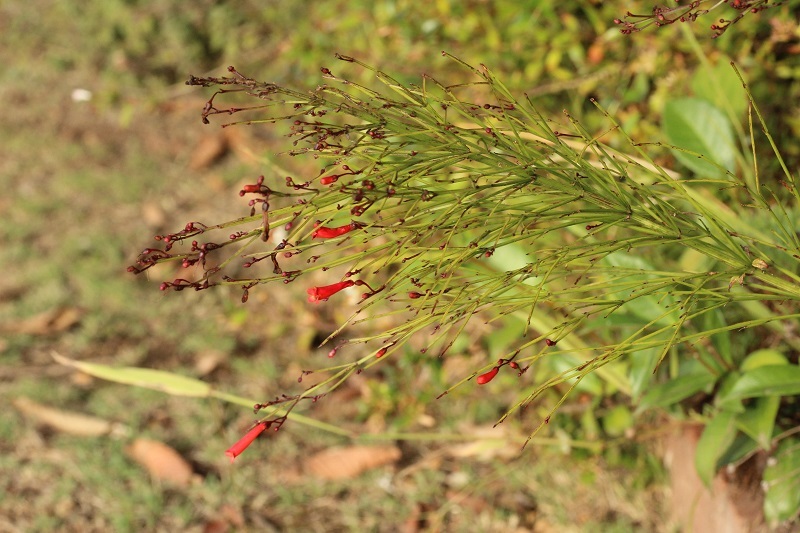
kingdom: Plantae
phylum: Tracheophyta
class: Magnoliopsida
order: Lamiales
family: Plantaginaceae
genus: Russelia
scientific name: Russelia equisetiformis
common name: Fountainbush
